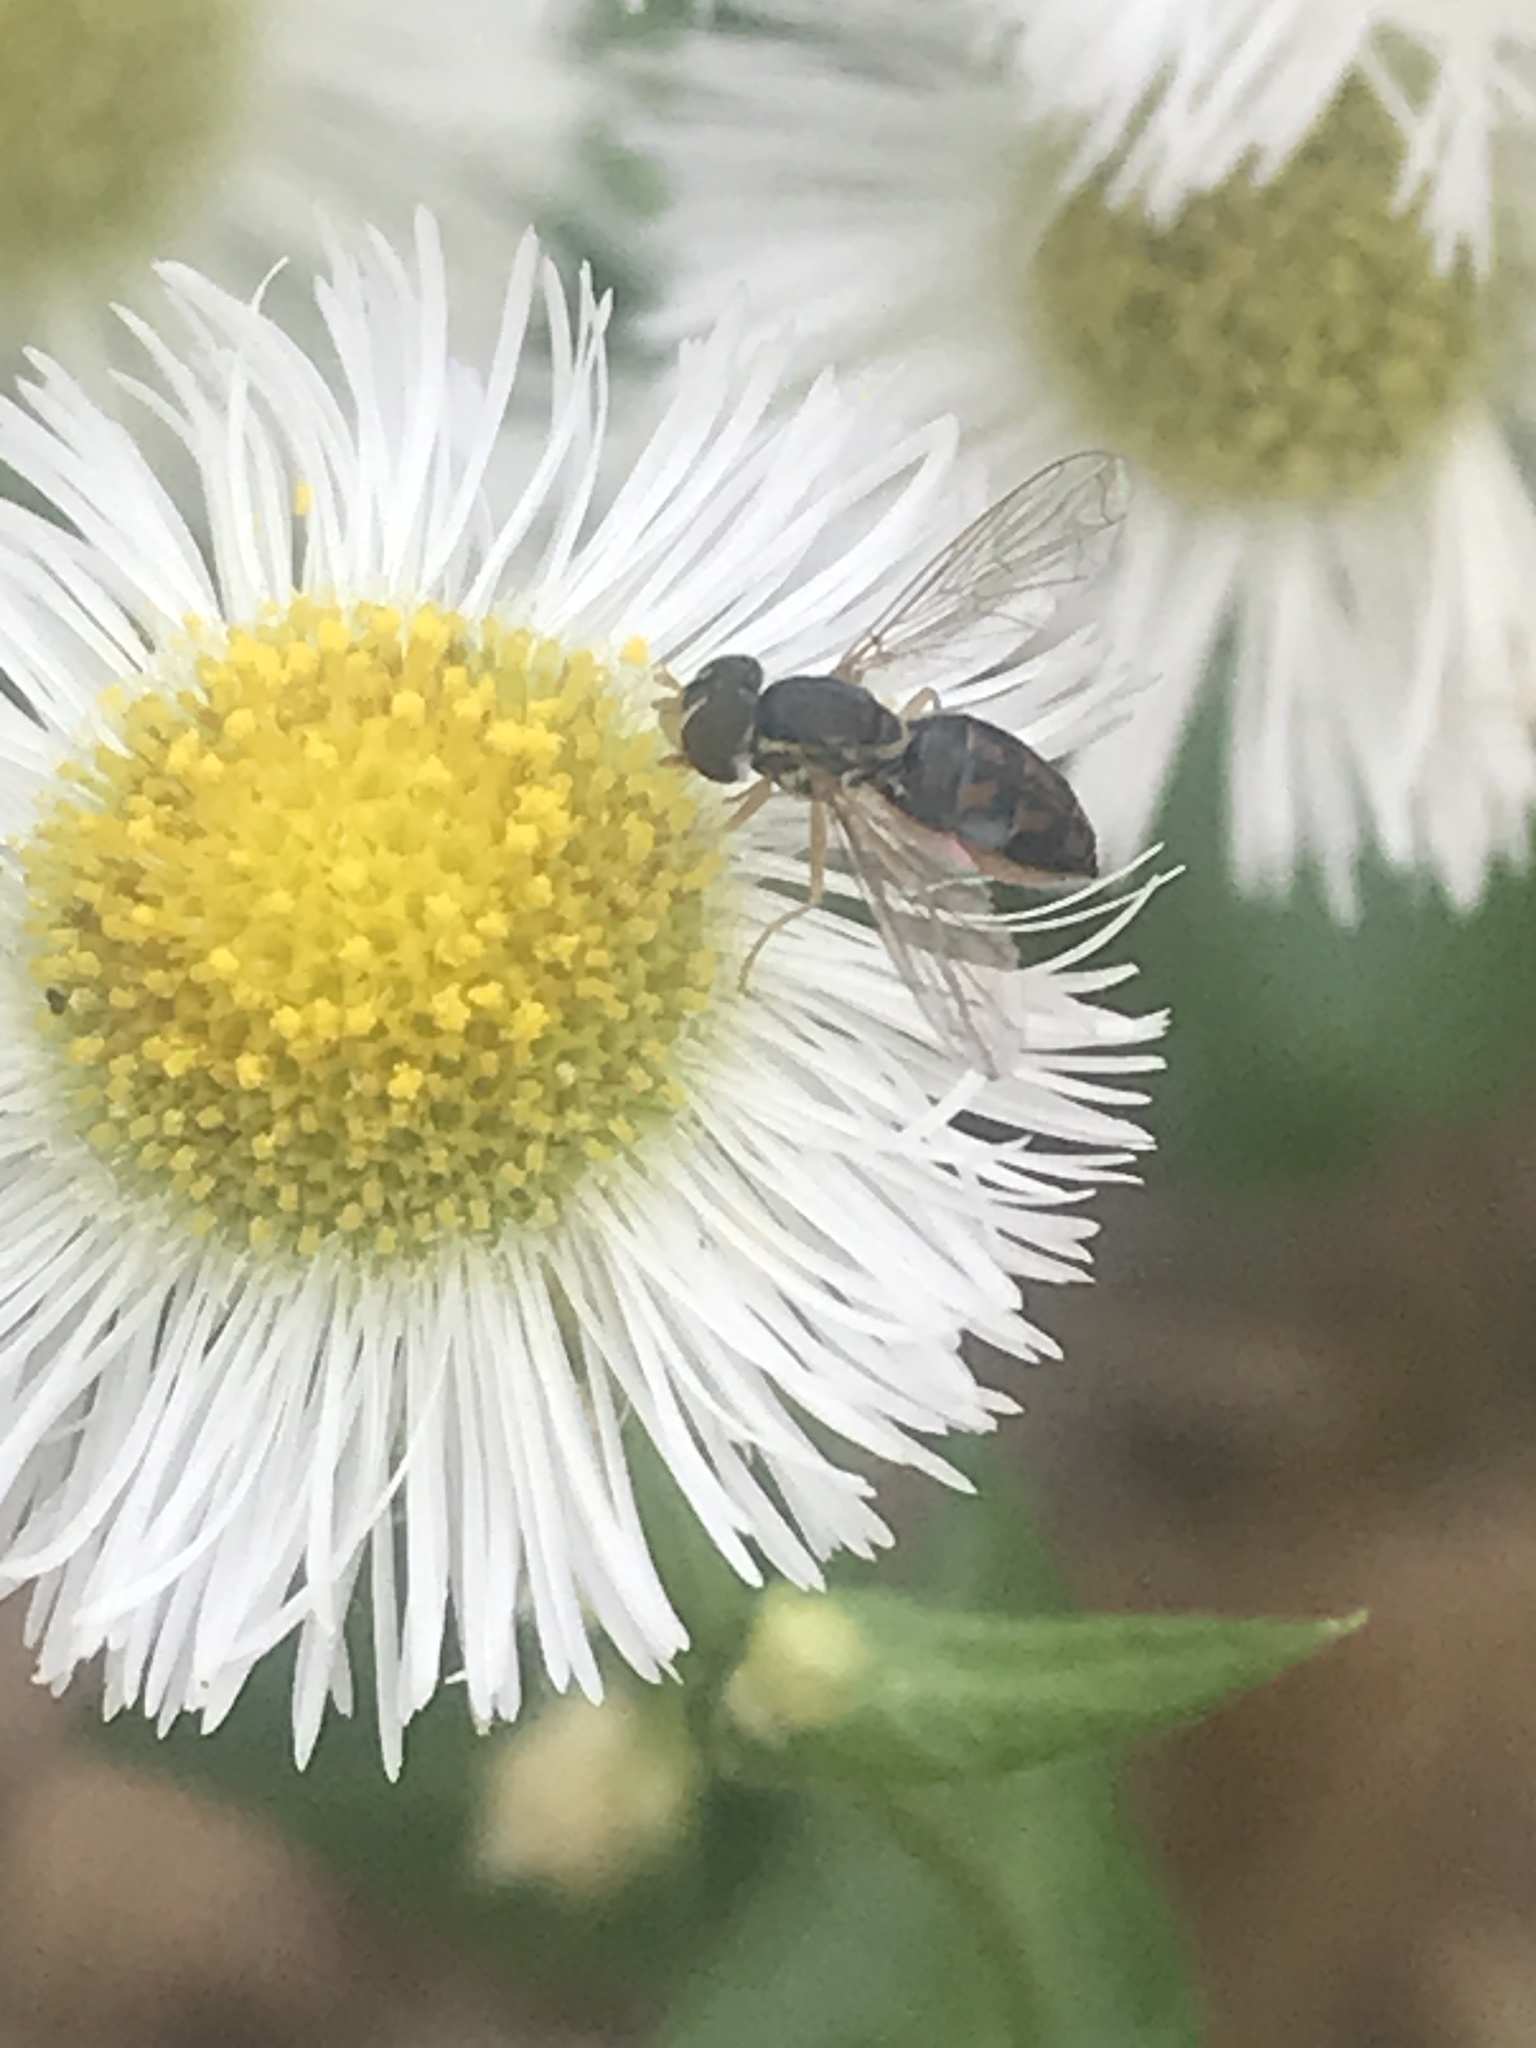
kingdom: Animalia
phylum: Arthropoda
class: Insecta
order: Diptera
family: Syrphidae
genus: Toxomerus
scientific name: Toxomerus marginatus
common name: Syrphid fly
